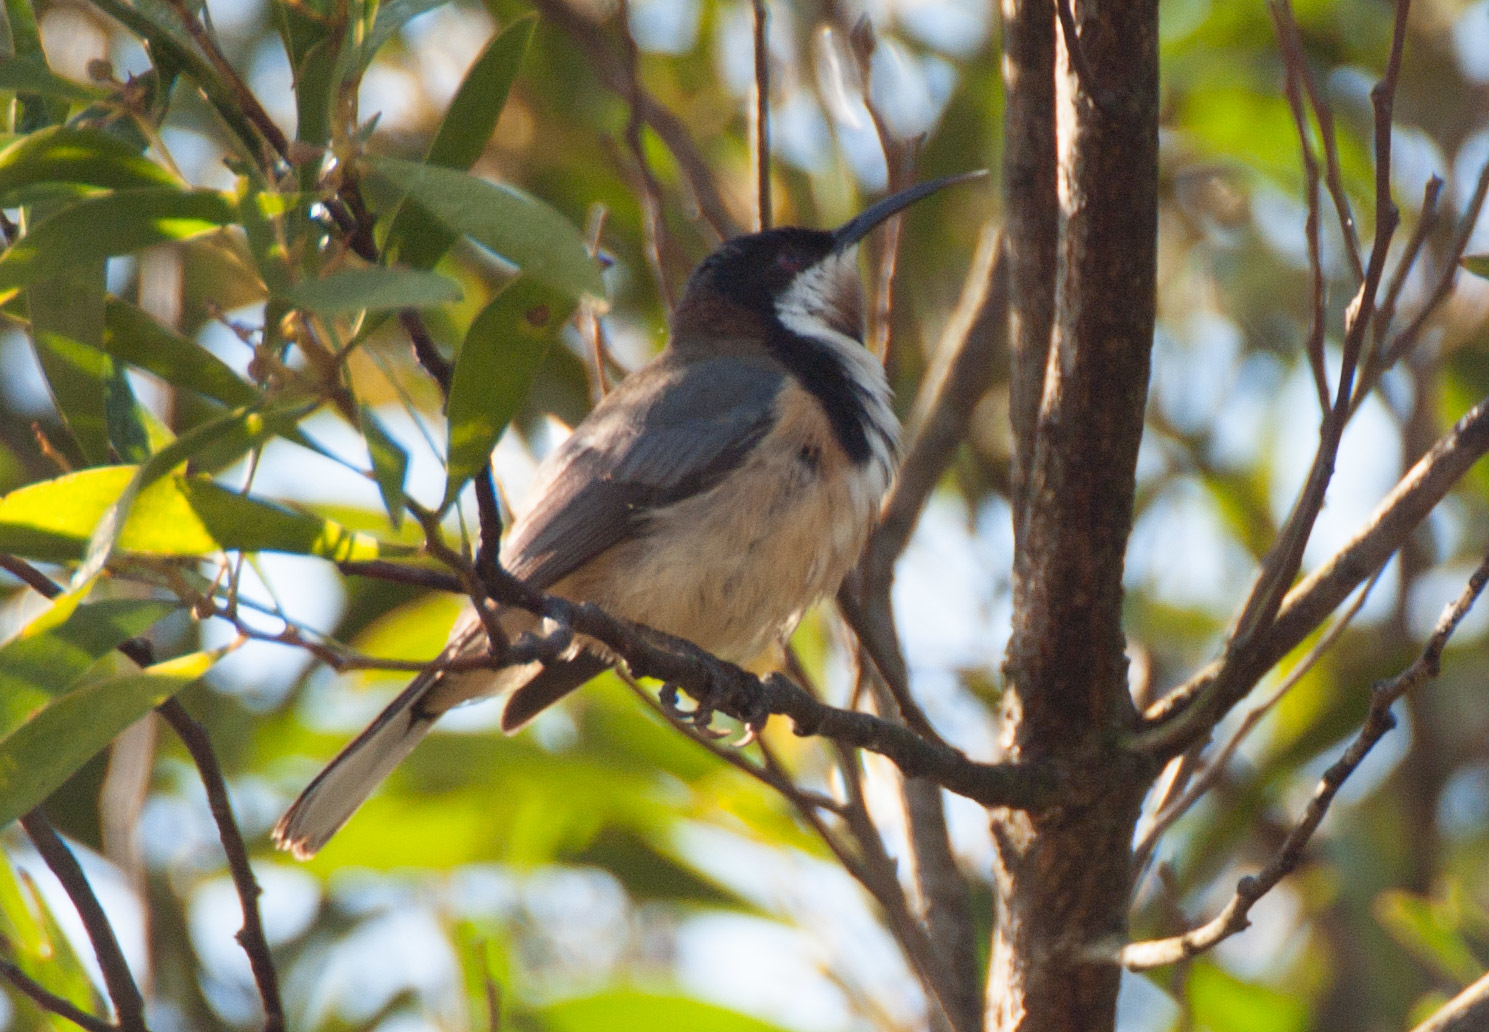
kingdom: Animalia
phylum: Chordata
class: Aves
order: Passeriformes
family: Meliphagidae
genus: Acanthorhynchus
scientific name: Acanthorhynchus tenuirostris
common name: Eastern spinebill
